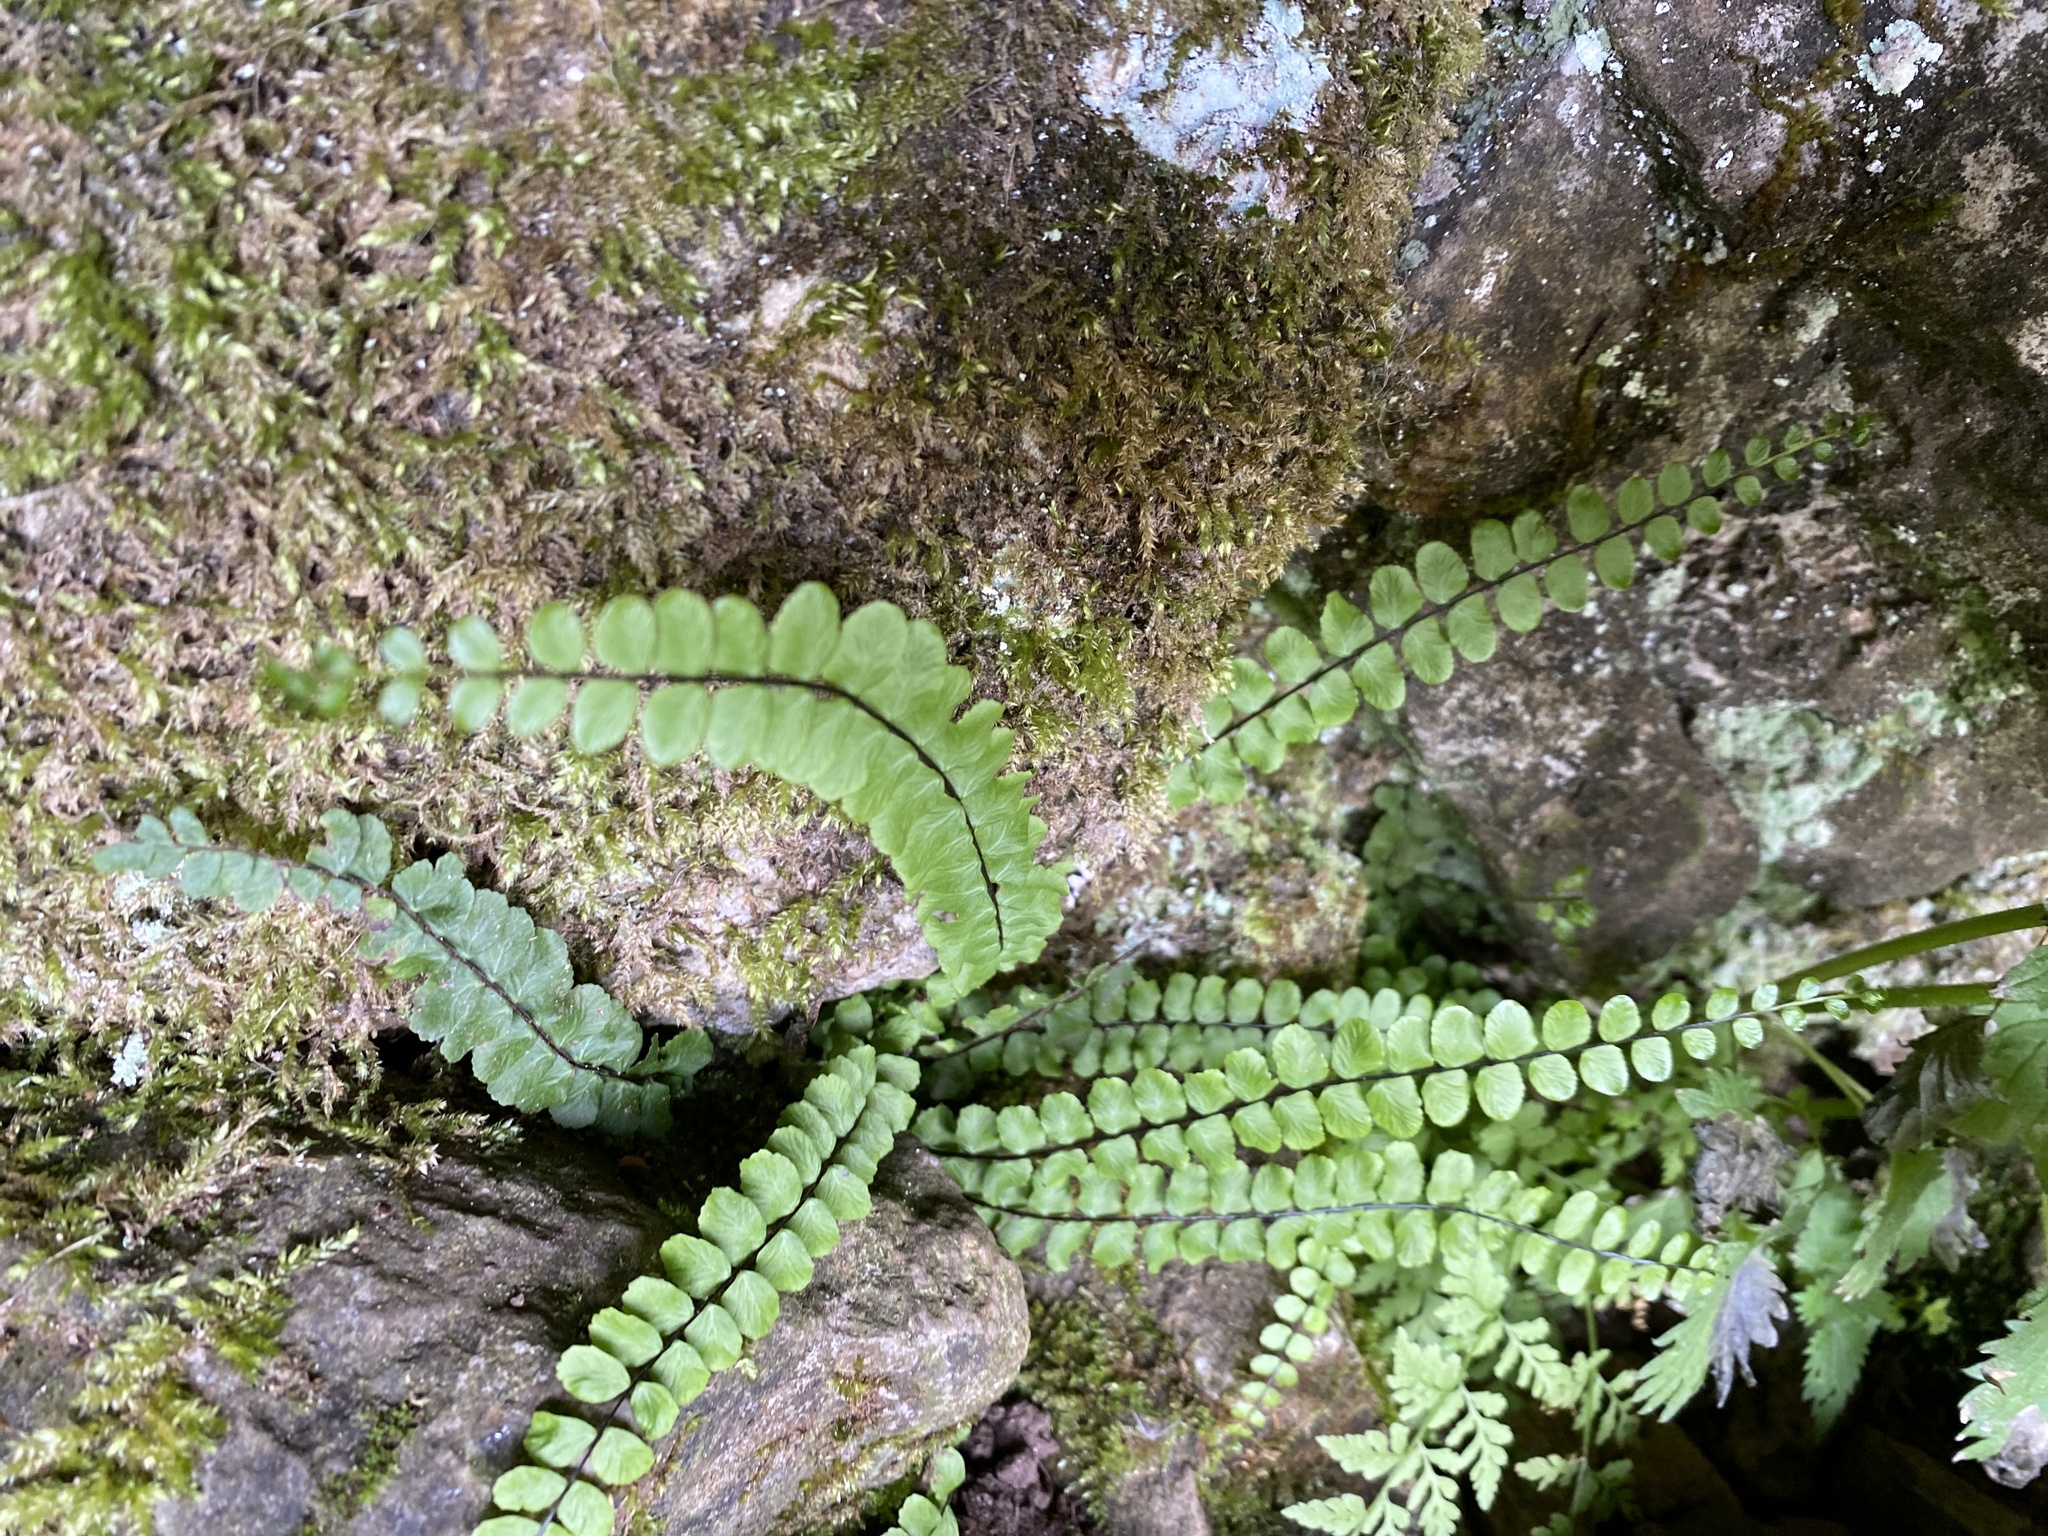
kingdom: Plantae
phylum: Tracheophyta
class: Polypodiopsida
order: Polypodiales
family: Aspleniaceae
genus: Asplenium
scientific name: Asplenium trichomanes
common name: Maidenhair spleenwort
